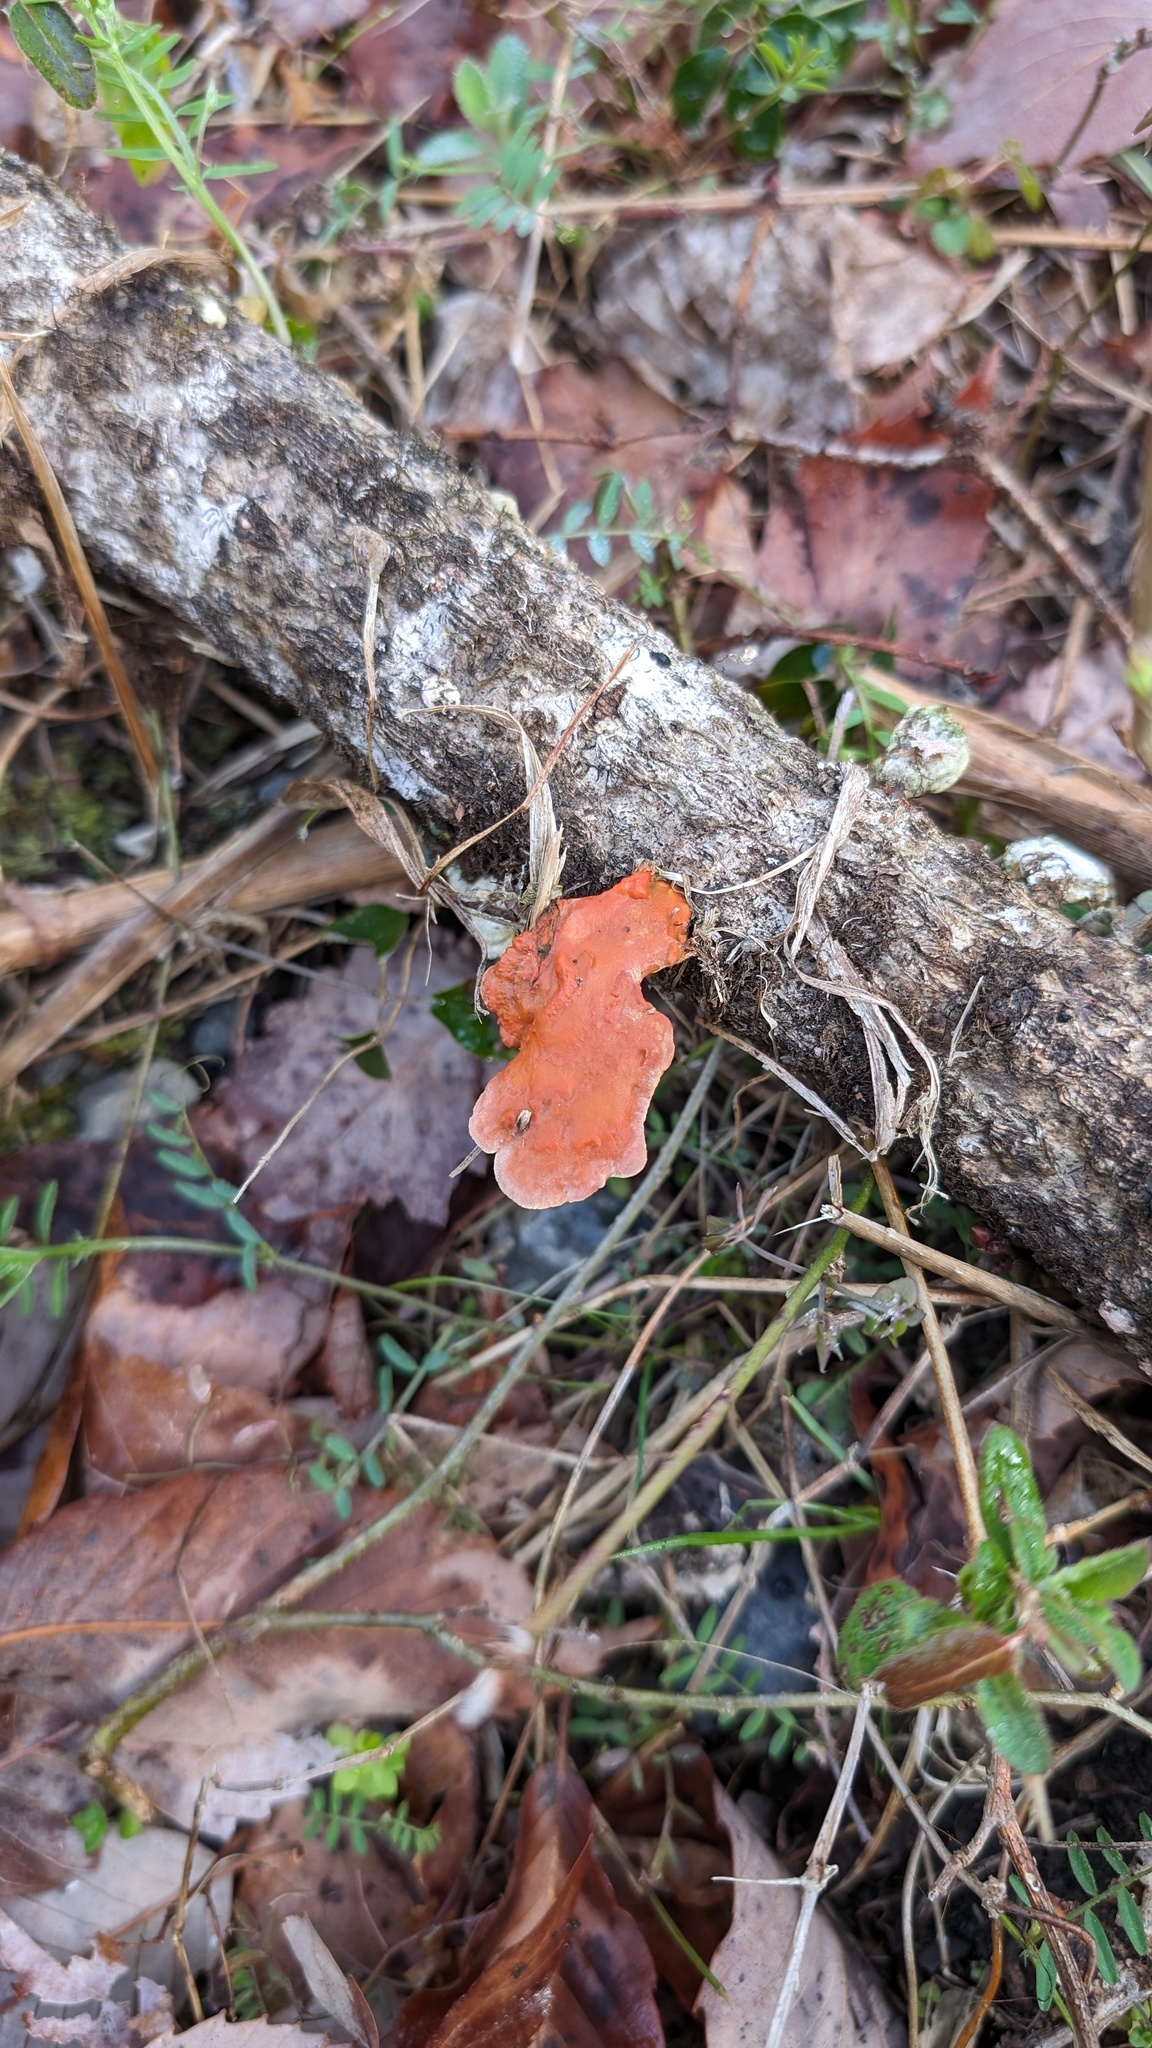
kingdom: Fungi
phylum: Basidiomycota
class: Agaricomycetes
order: Polyporales
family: Polyporaceae
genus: Trametes
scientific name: Trametes coccinea
